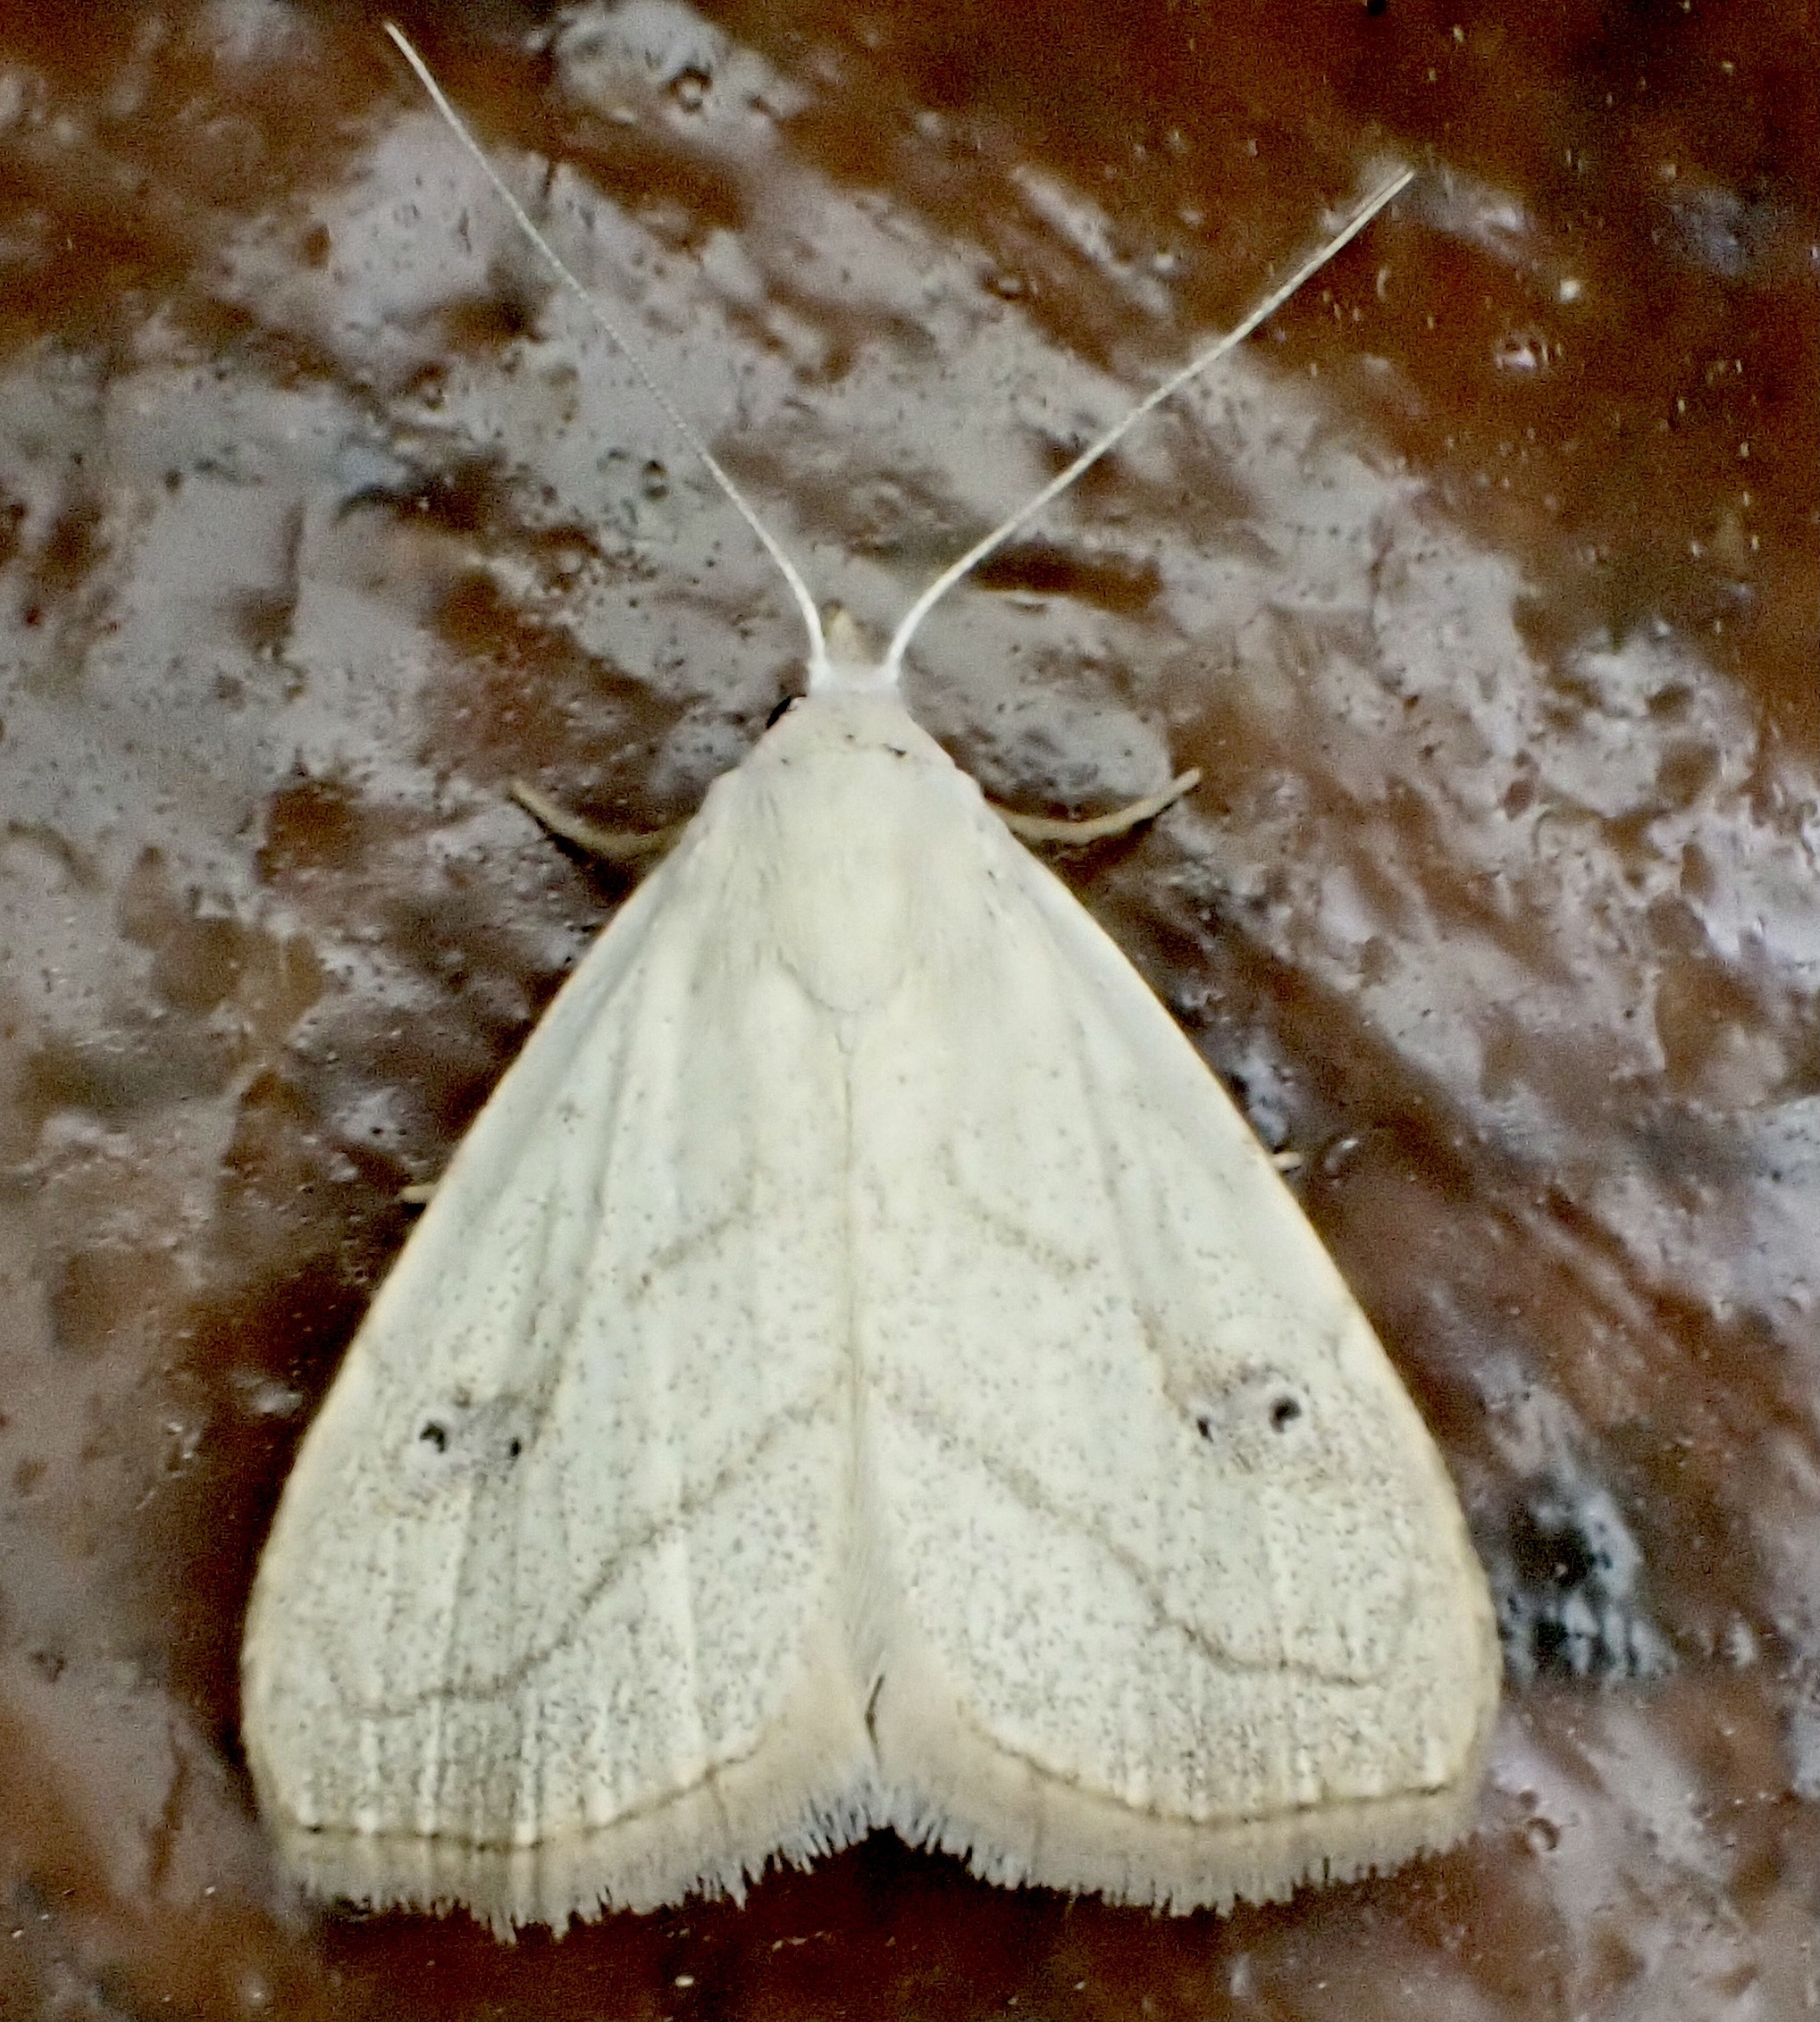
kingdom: Animalia
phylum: Arthropoda
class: Insecta
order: Lepidoptera
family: Erebidae
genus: Rivula
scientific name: Rivula propinqualis
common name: Spotted grass moth
